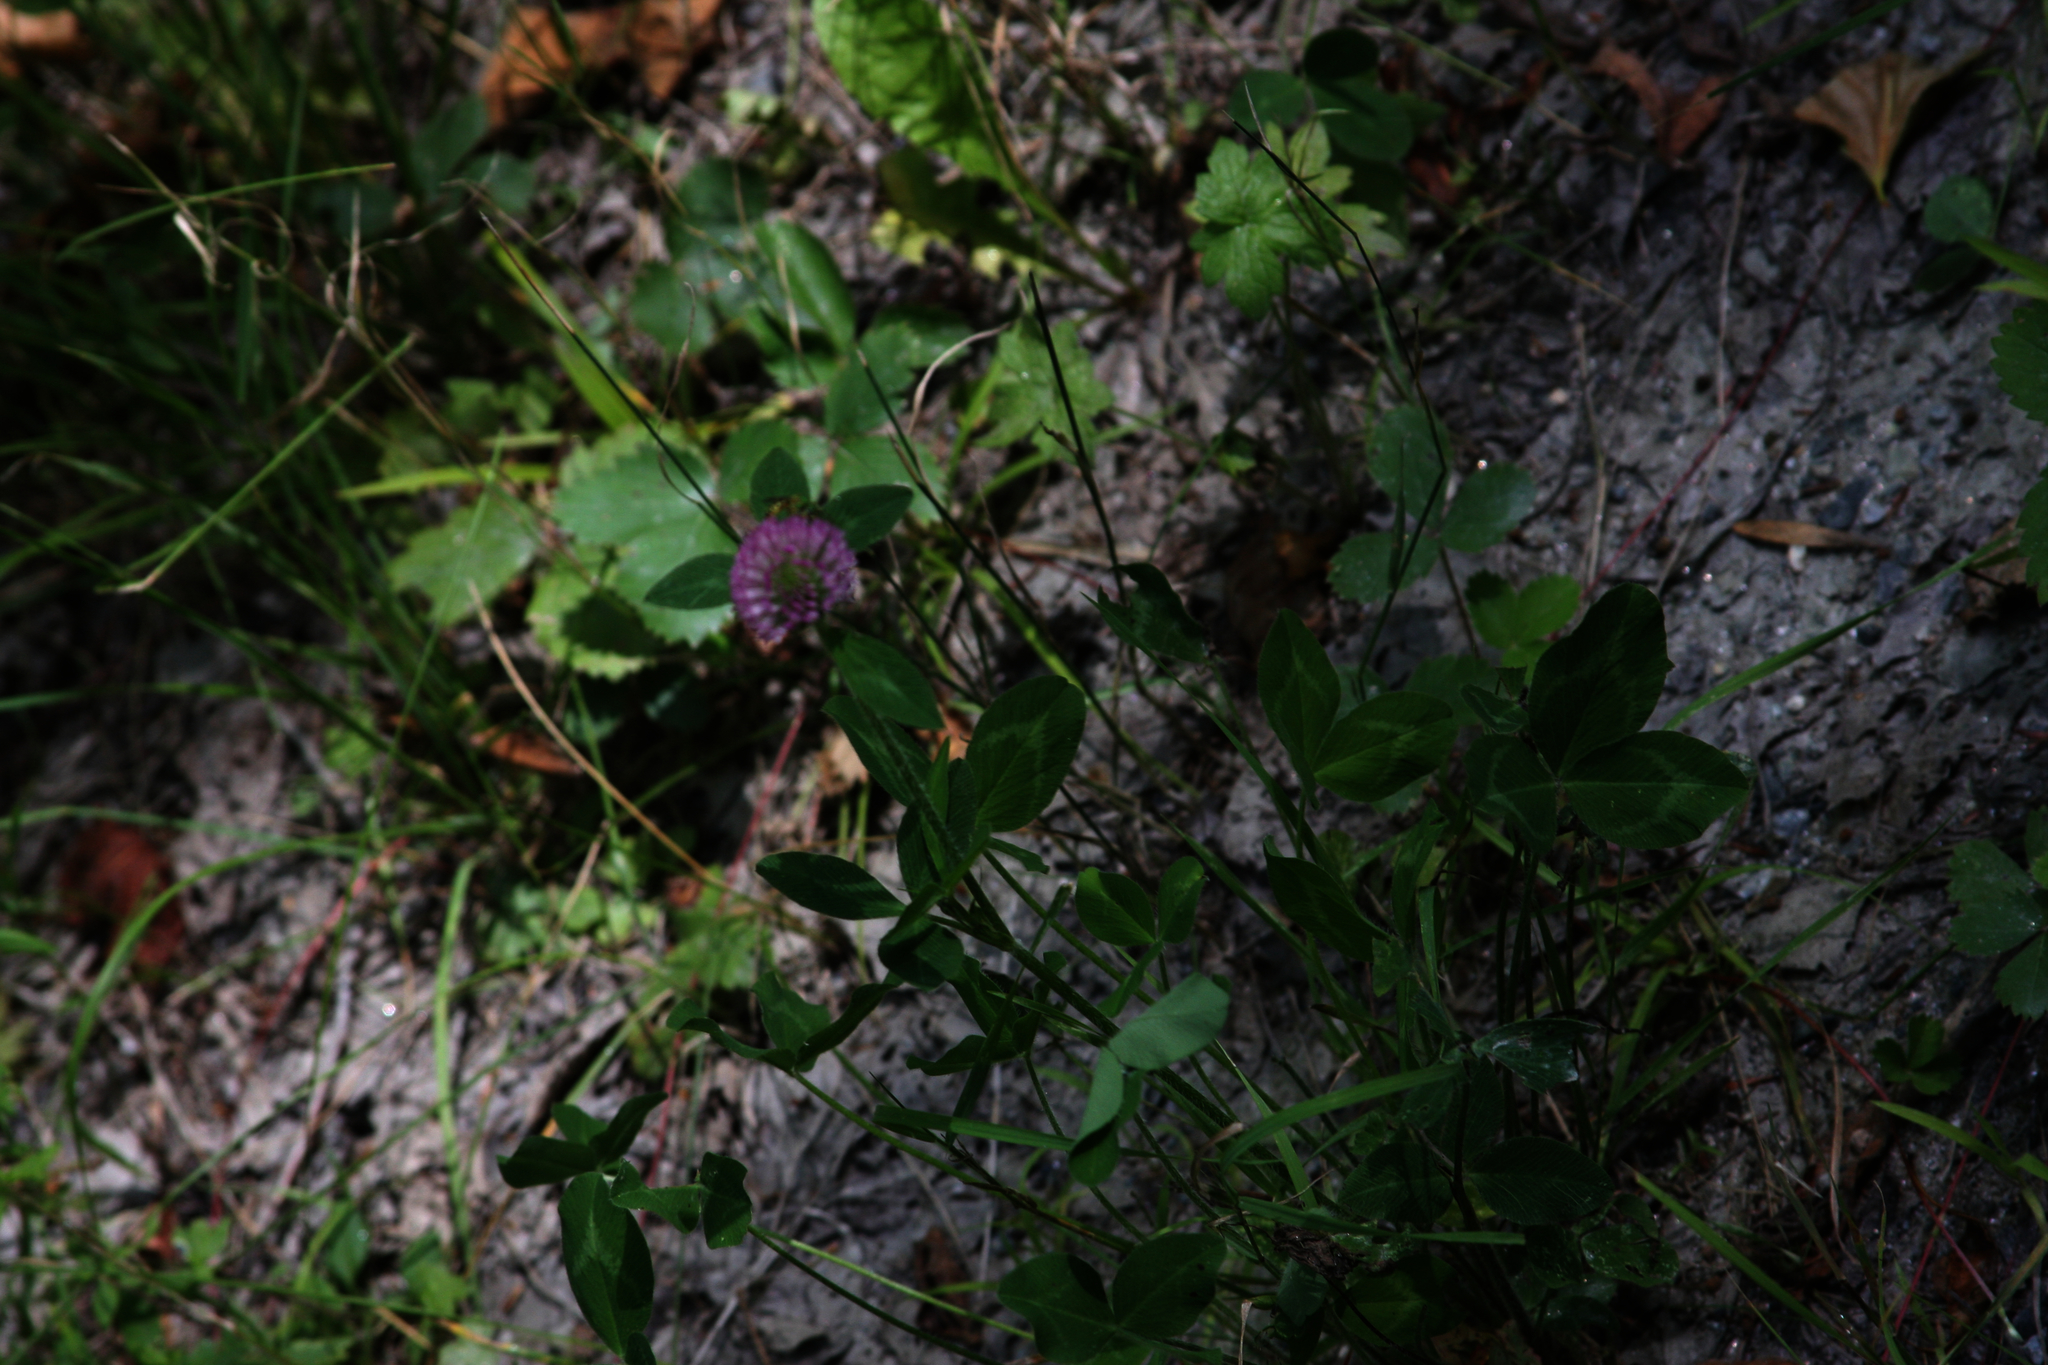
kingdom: Plantae
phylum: Tracheophyta
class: Magnoliopsida
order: Fabales
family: Fabaceae
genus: Trifolium
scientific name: Trifolium pratense
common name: Red clover
